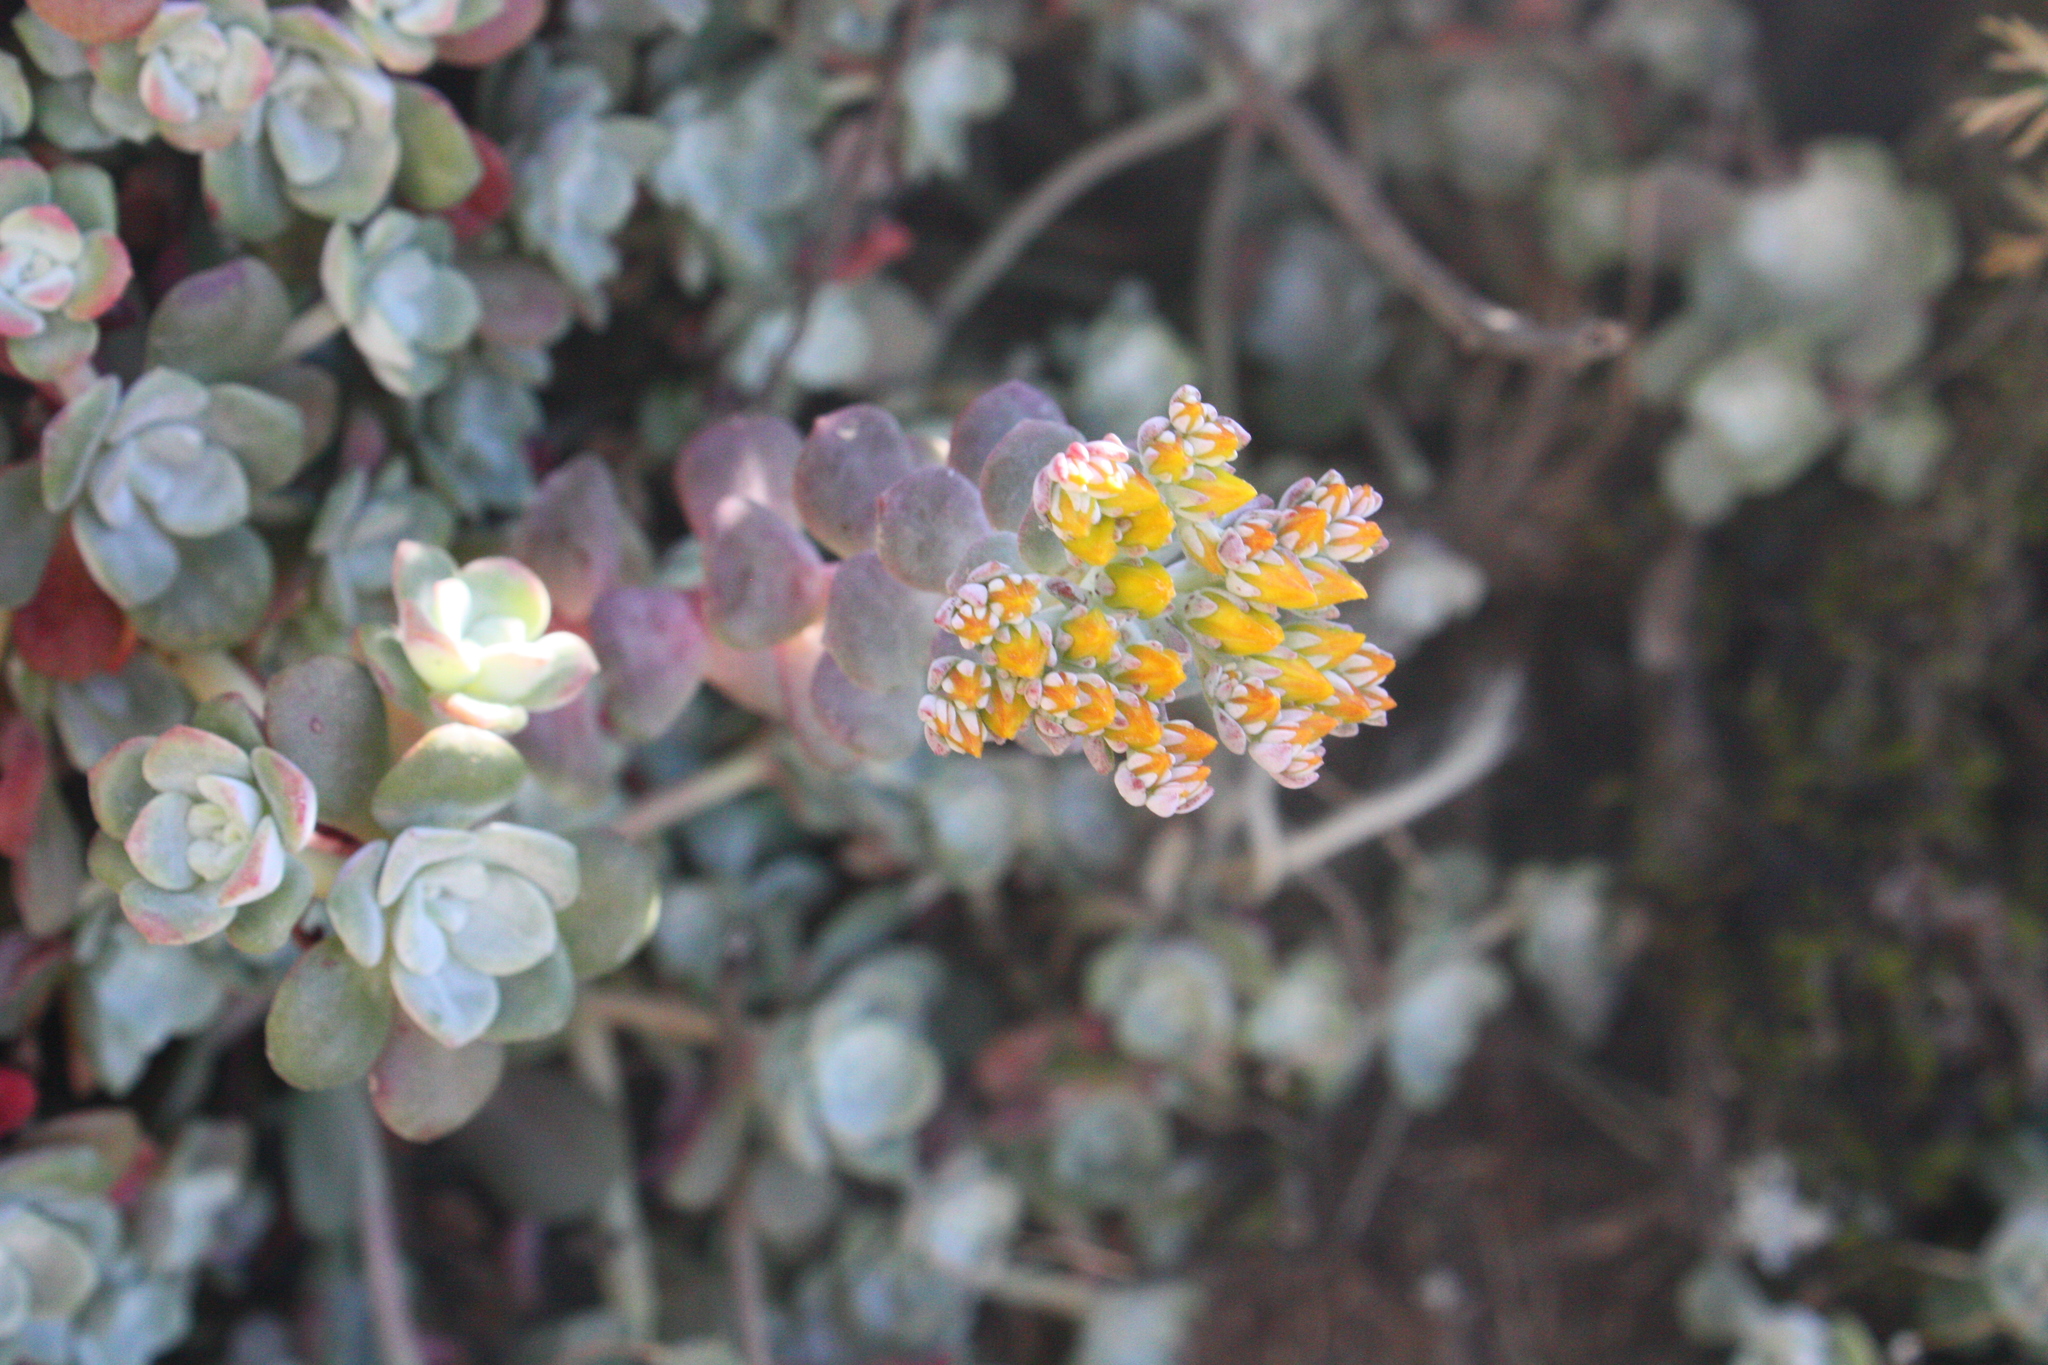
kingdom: Plantae
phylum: Tracheophyta
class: Magnoliopsida
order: Saxifragales
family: Crassulaceae
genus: Sedum
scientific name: Sedum spathulifolium
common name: Colorado stonecrop
